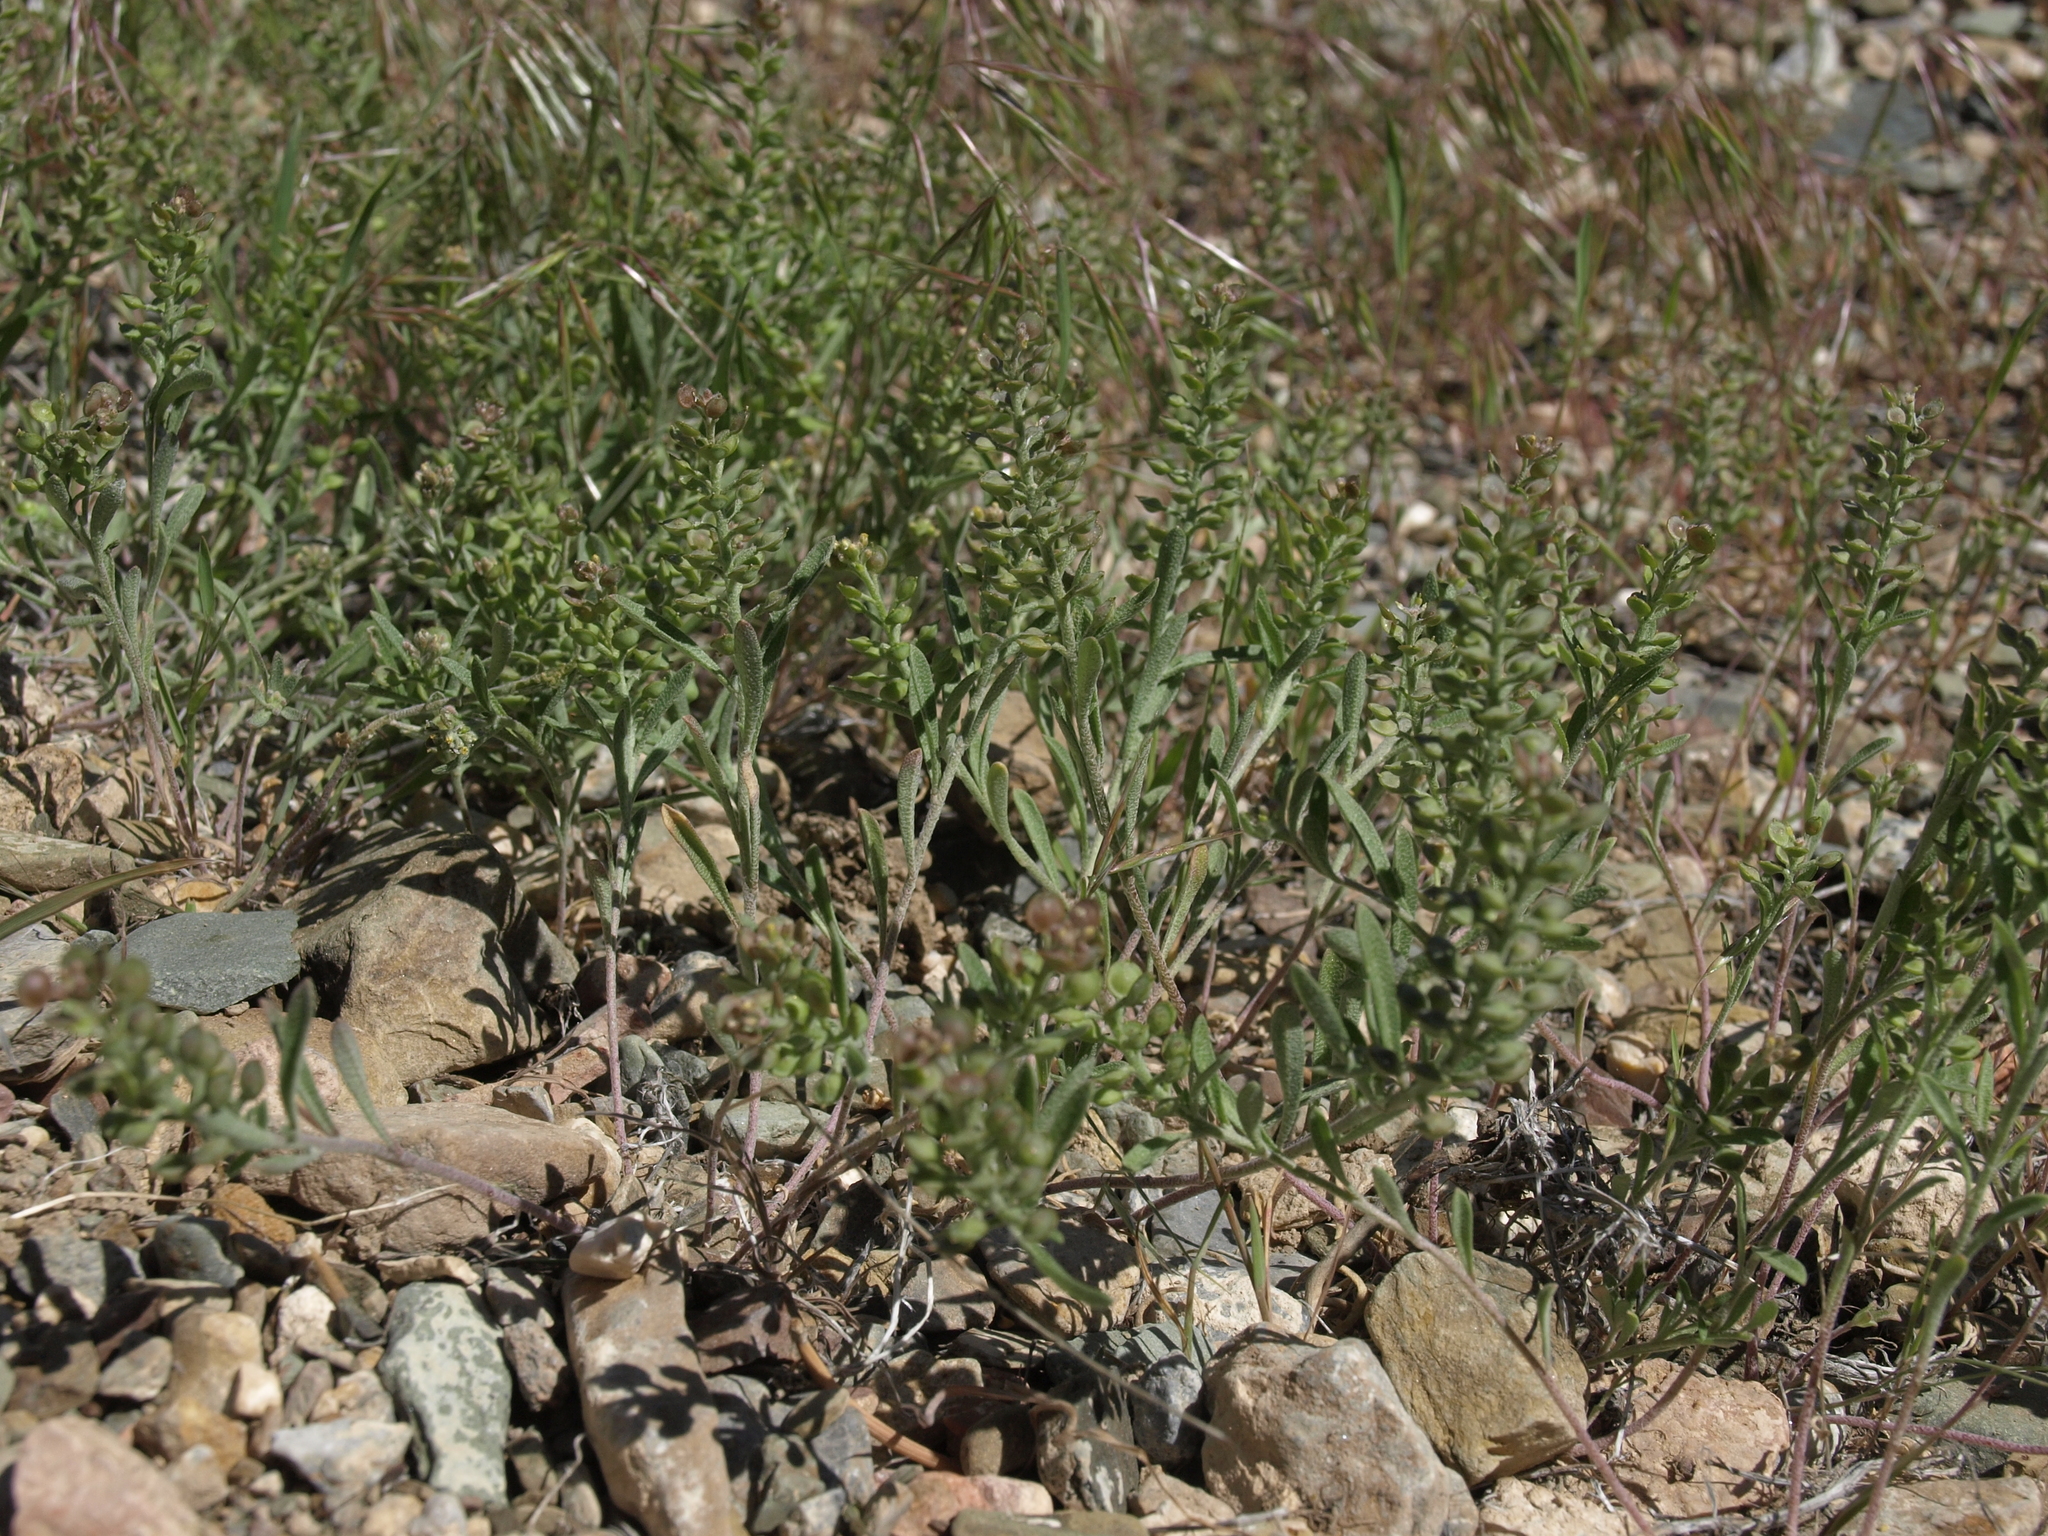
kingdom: Plantae
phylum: Tracheophyta
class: Magnoliopsida
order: Brassicales
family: Brassicaceae
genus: Alyssum
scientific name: Alyssum turkestanicum
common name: Desert alyssum
